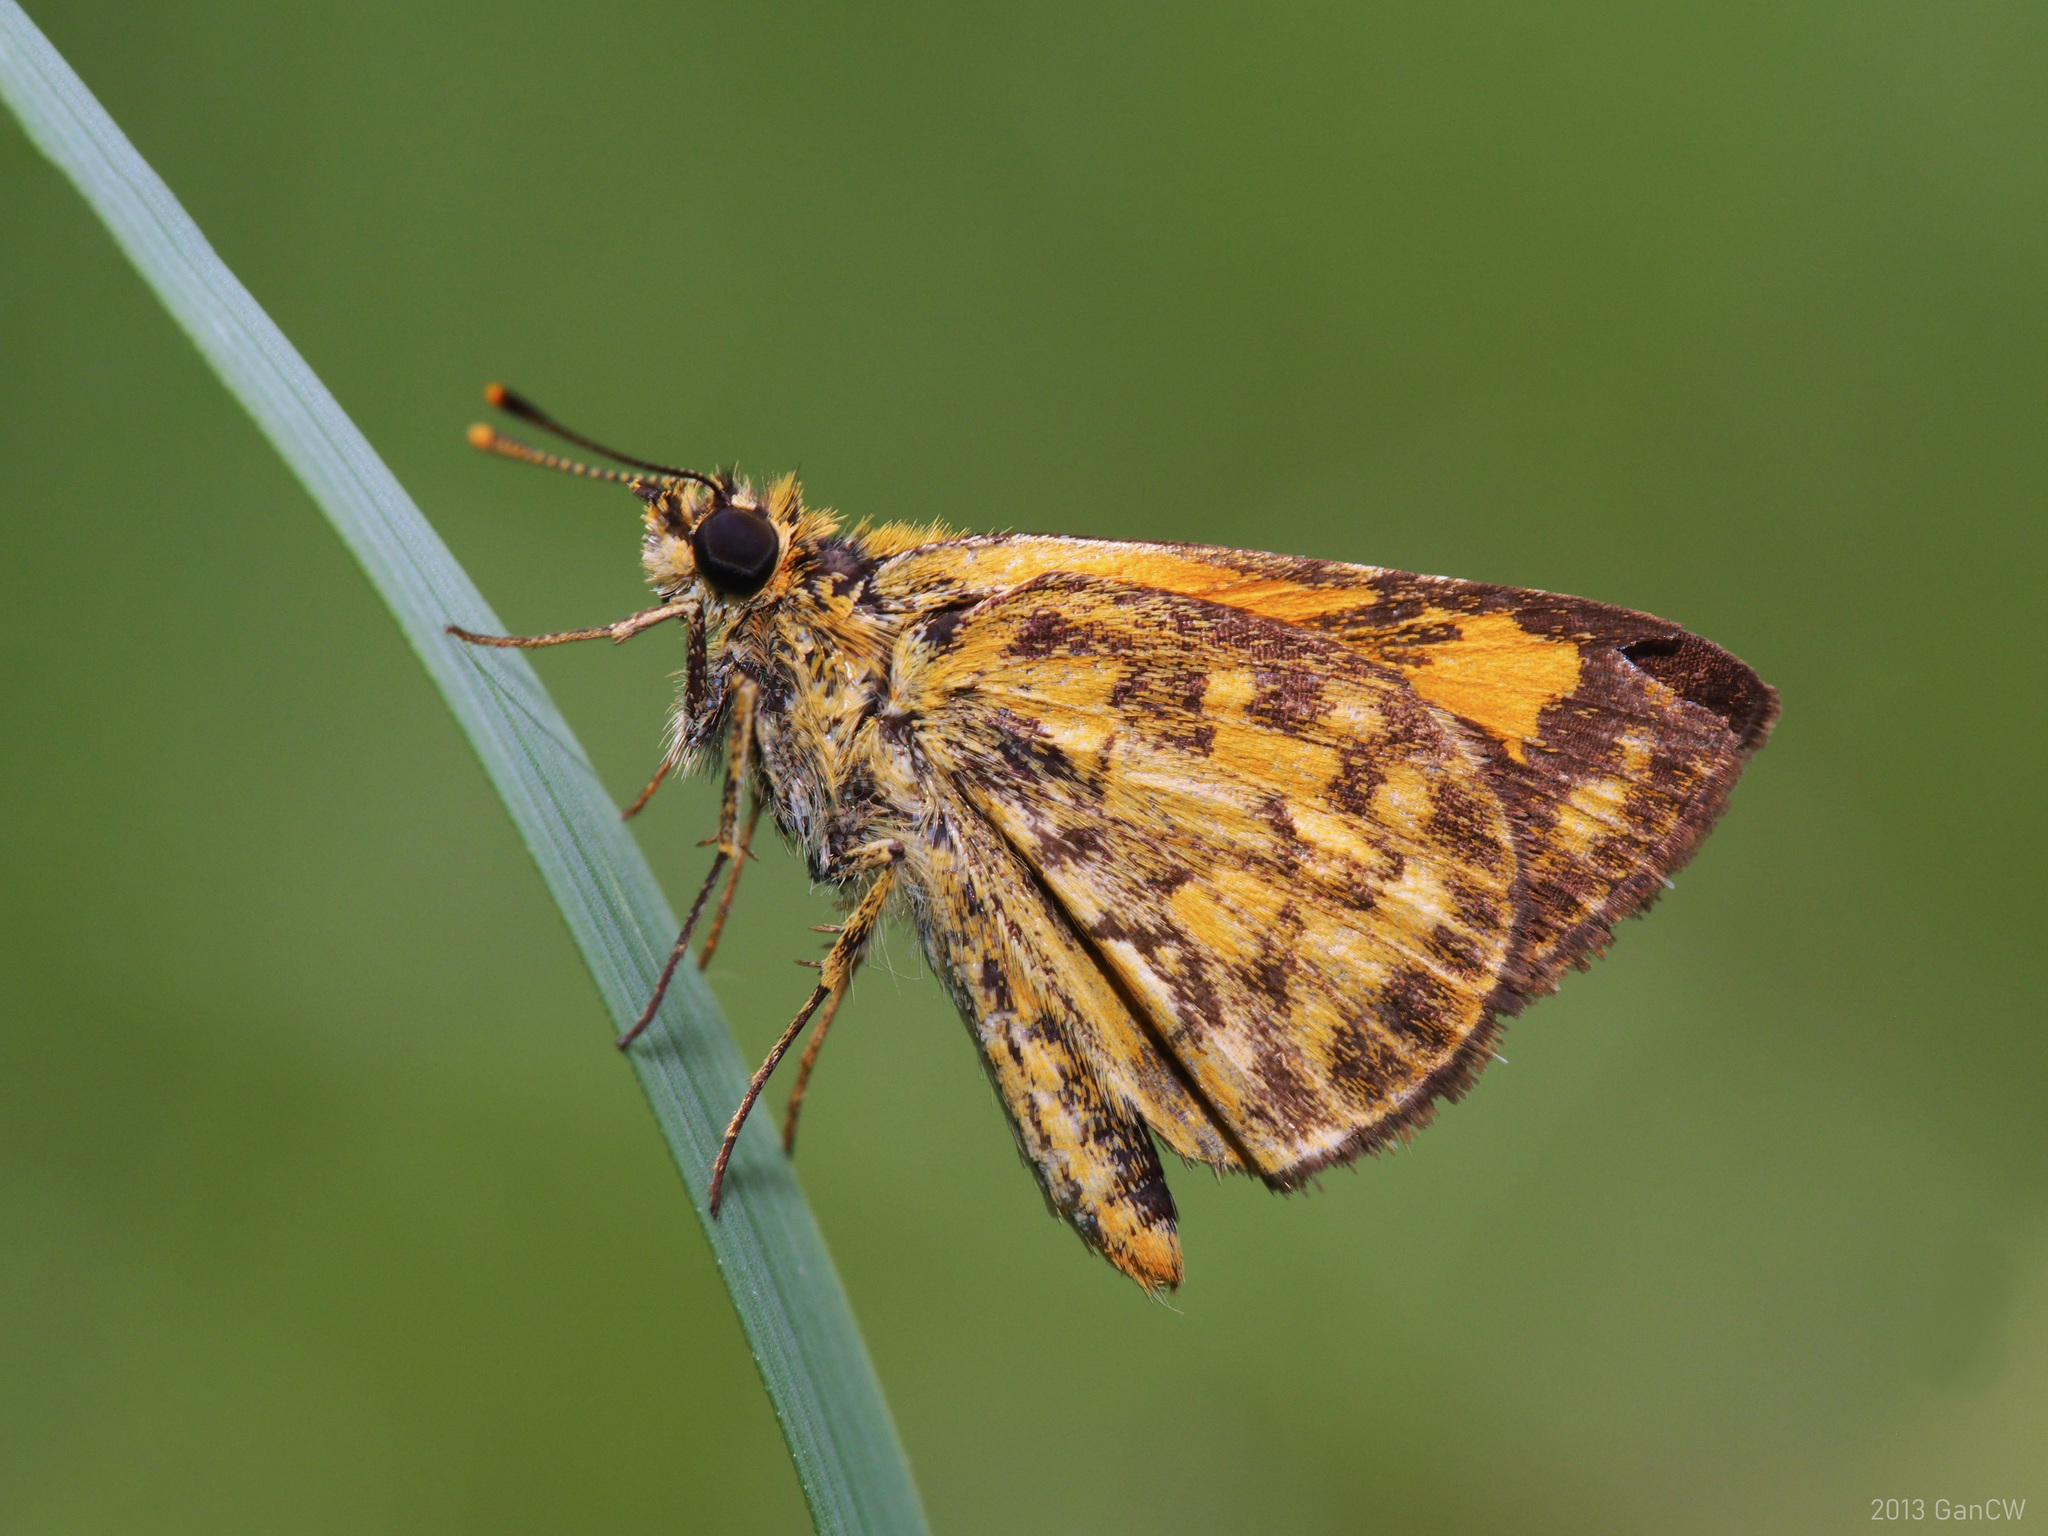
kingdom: Animalia
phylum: Arthropoda
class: Insecta
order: Lepidoptera
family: Hesperiidae
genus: Ampittia
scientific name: Ampittia dioscorides
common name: Common bush hopper
